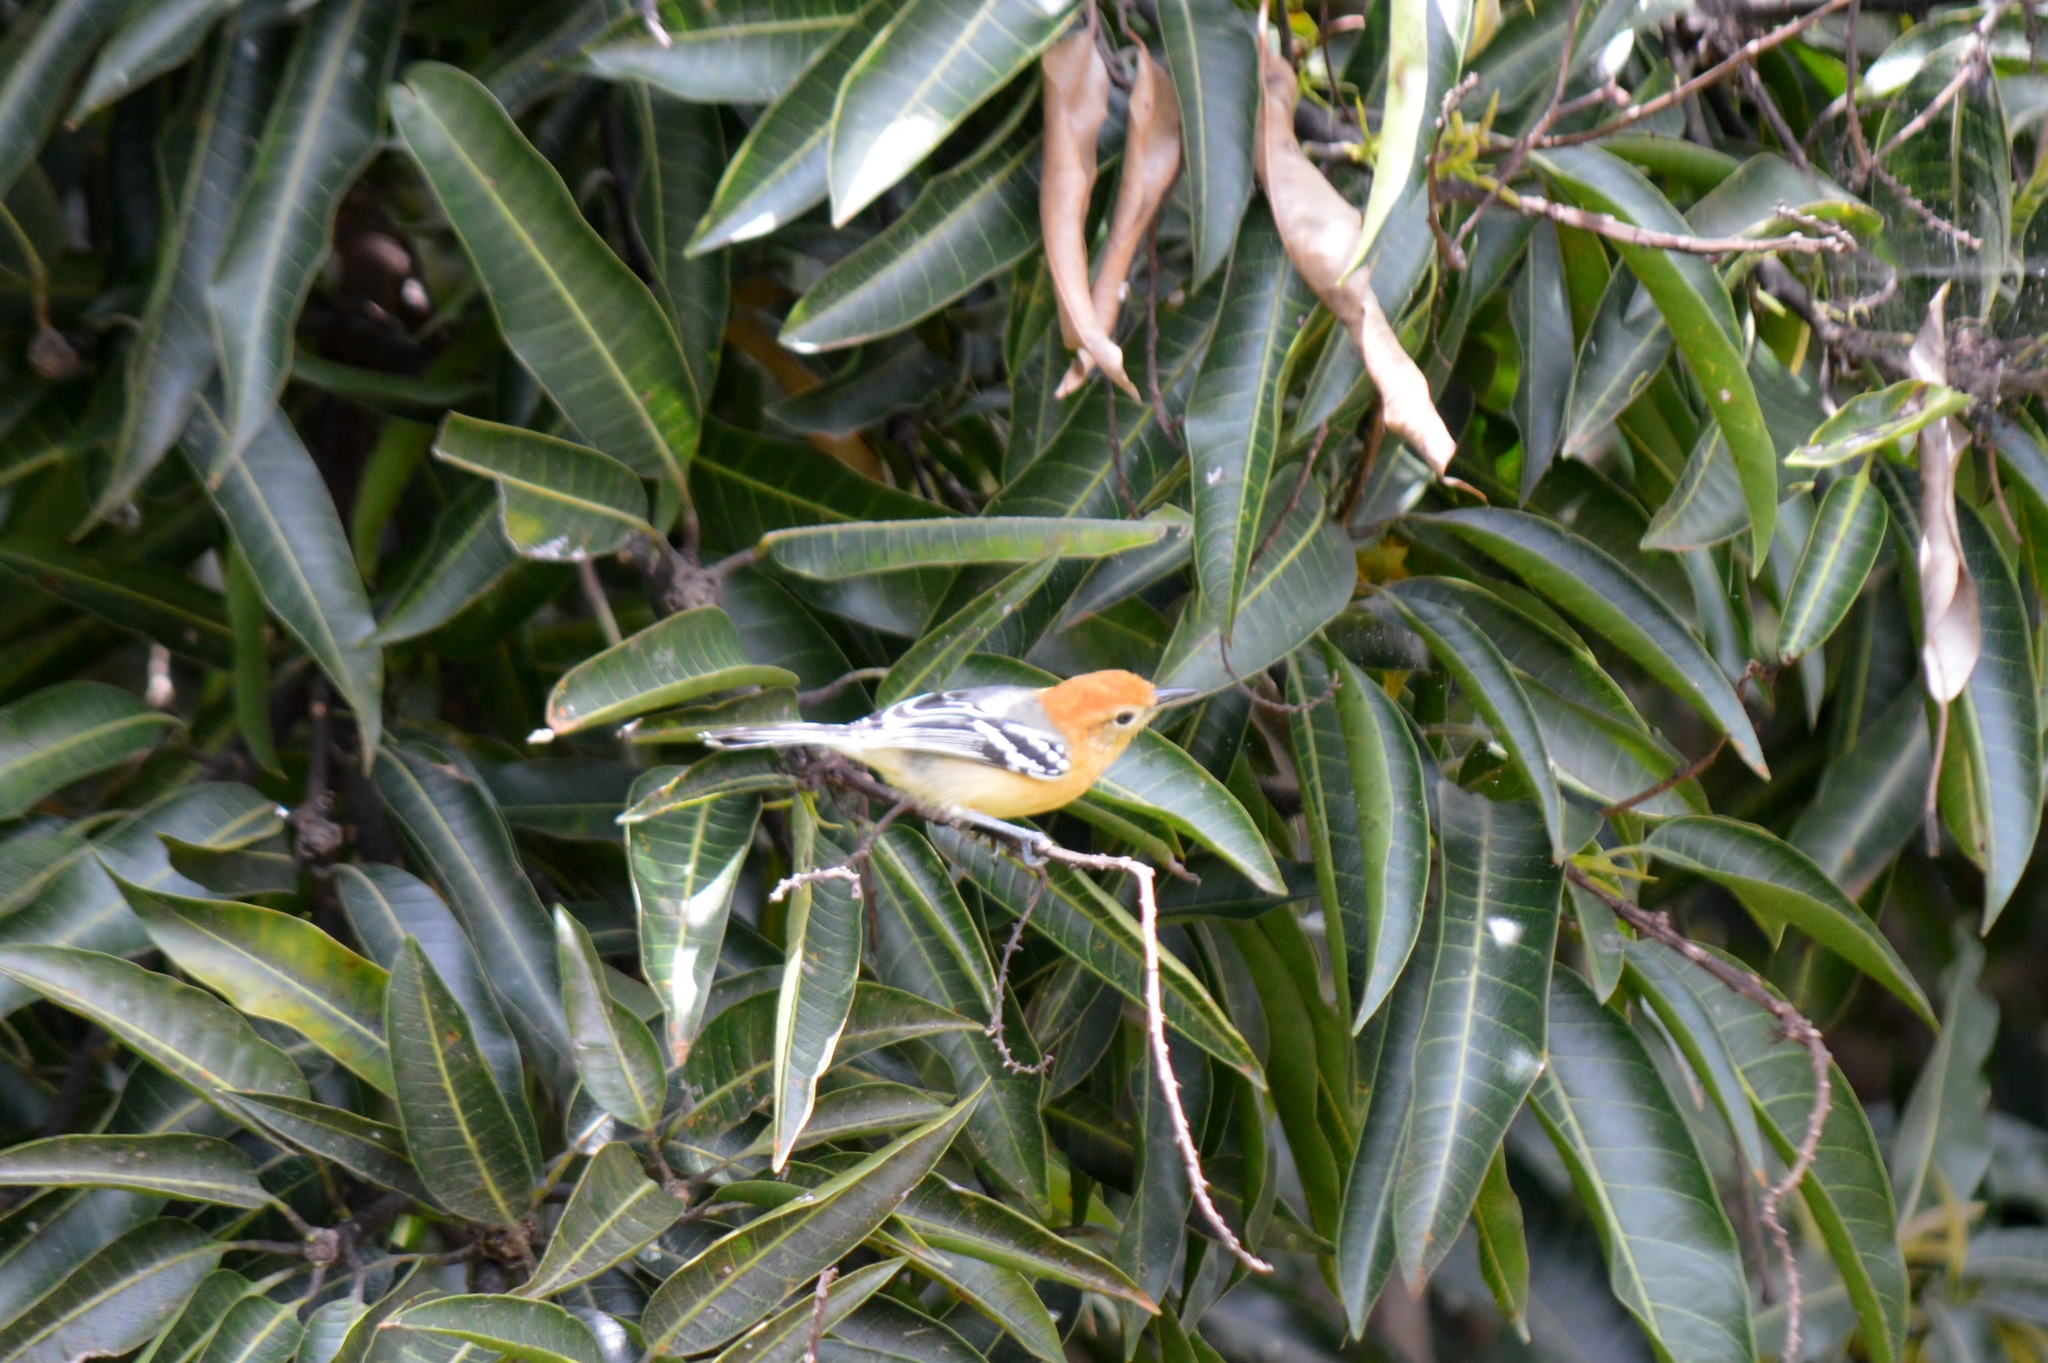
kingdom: Animalia
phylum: Chordata
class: Aves
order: Passeriformes
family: Thamnophilidae
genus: Herpsilochmus
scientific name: Herpsilochmus longirostris
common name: Large-billed antwren
